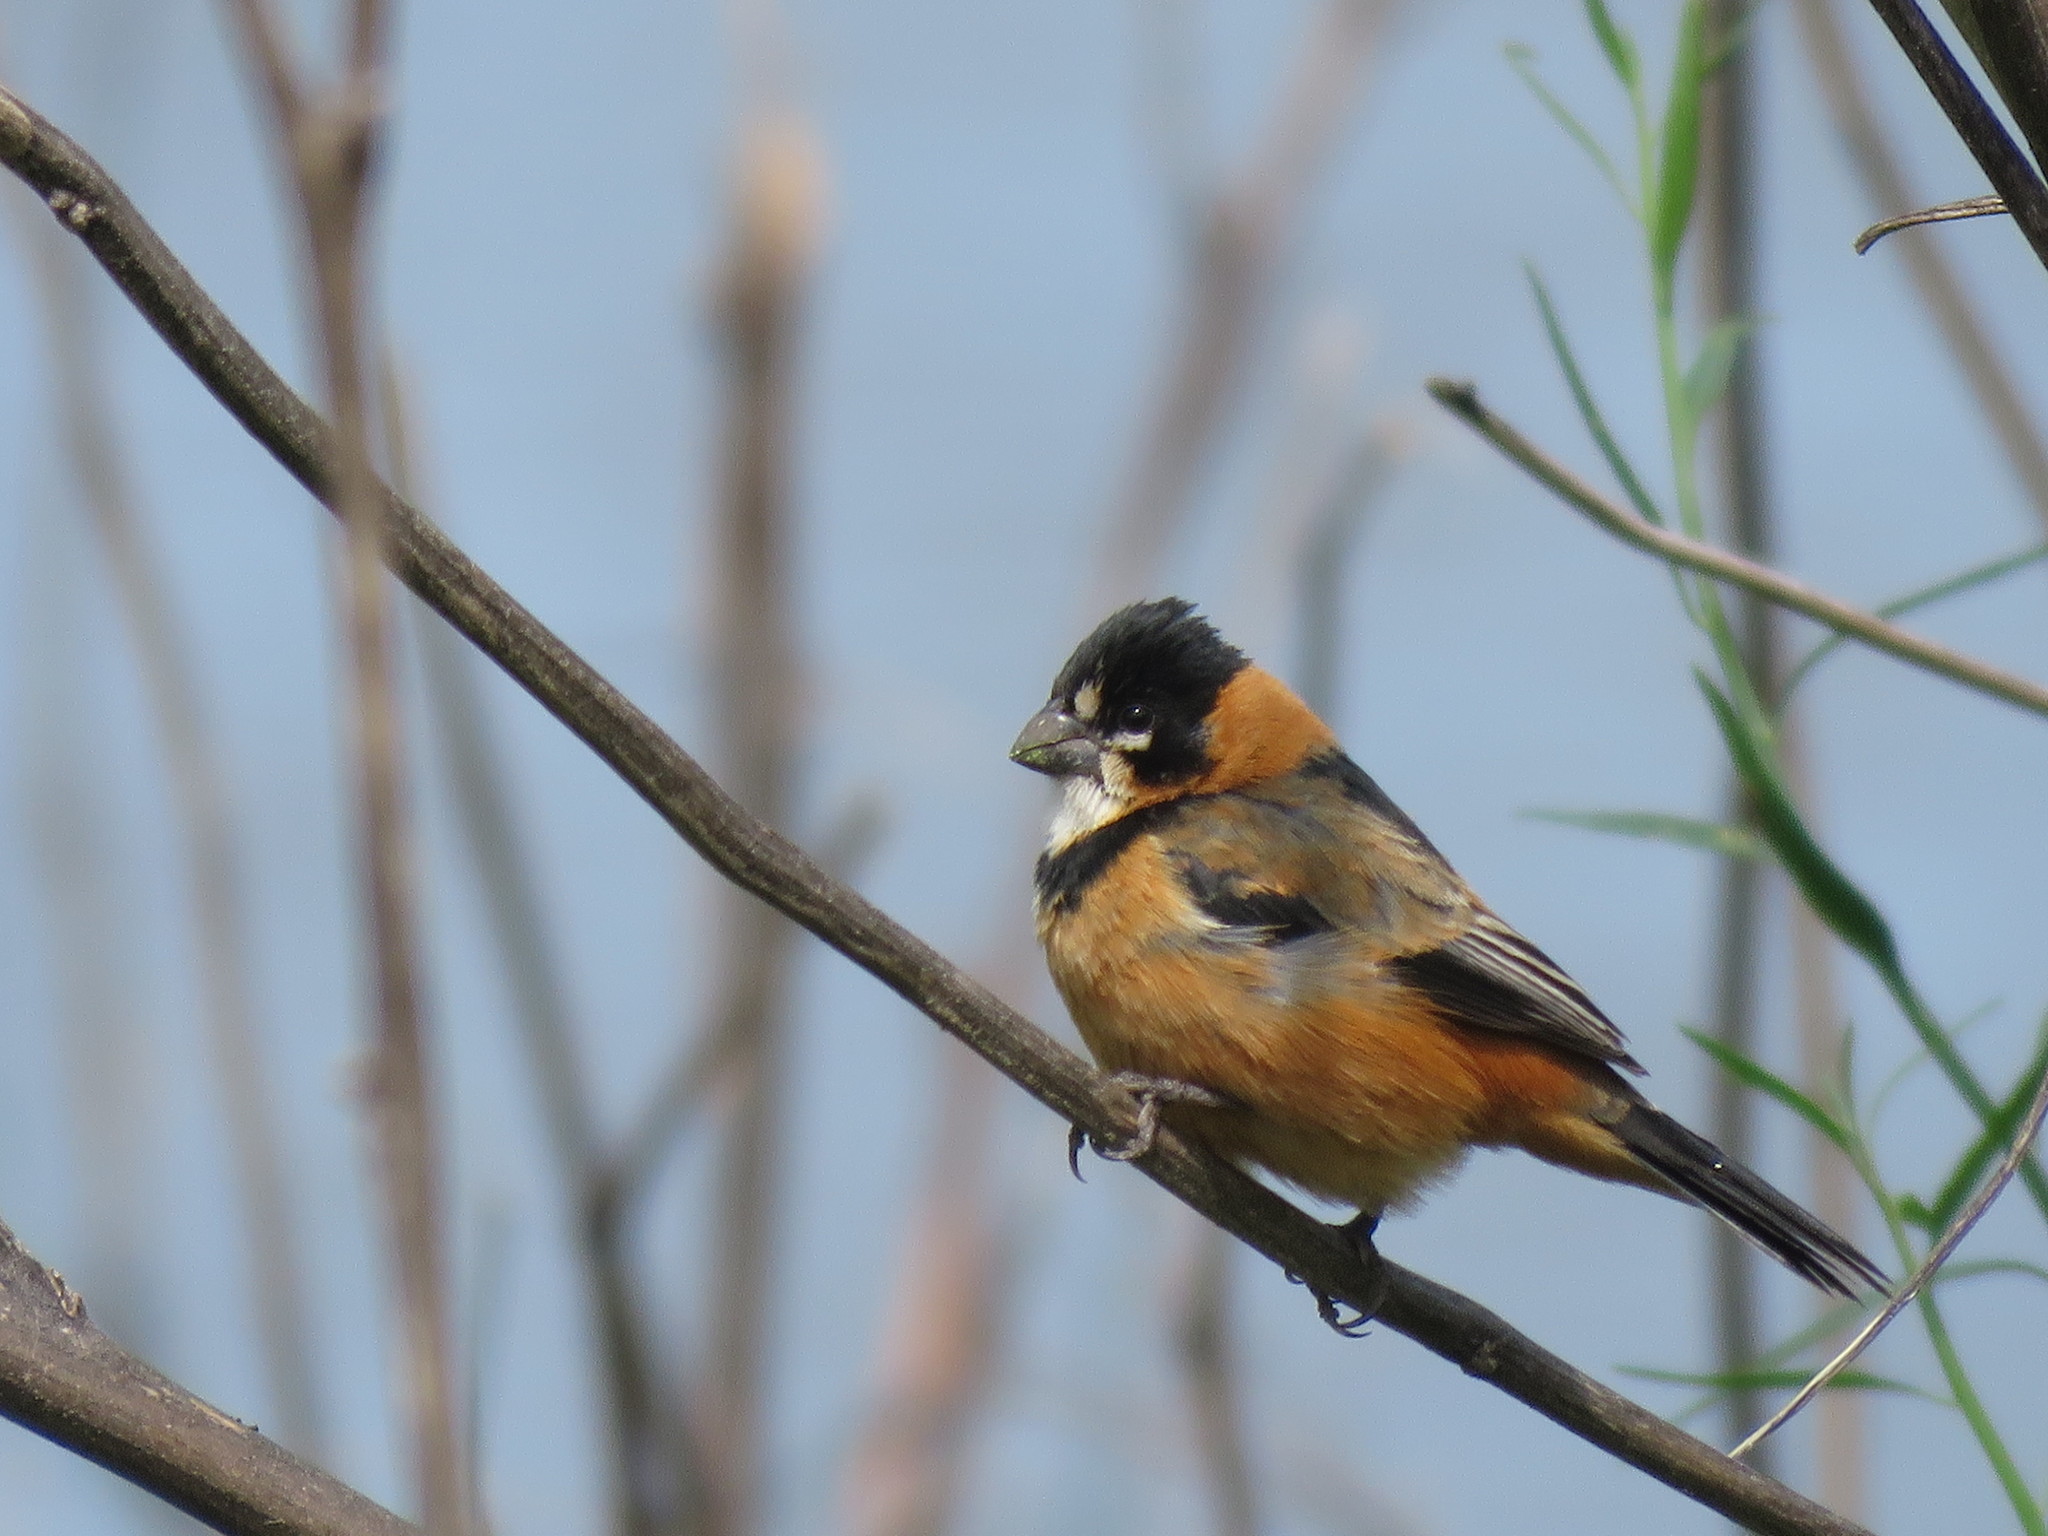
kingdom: Animalia
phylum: Chordata
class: Aves
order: Passeriformes
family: Thraupidae
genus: Sporophila
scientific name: Sporophila collaris
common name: Rusty-collared seedeater
